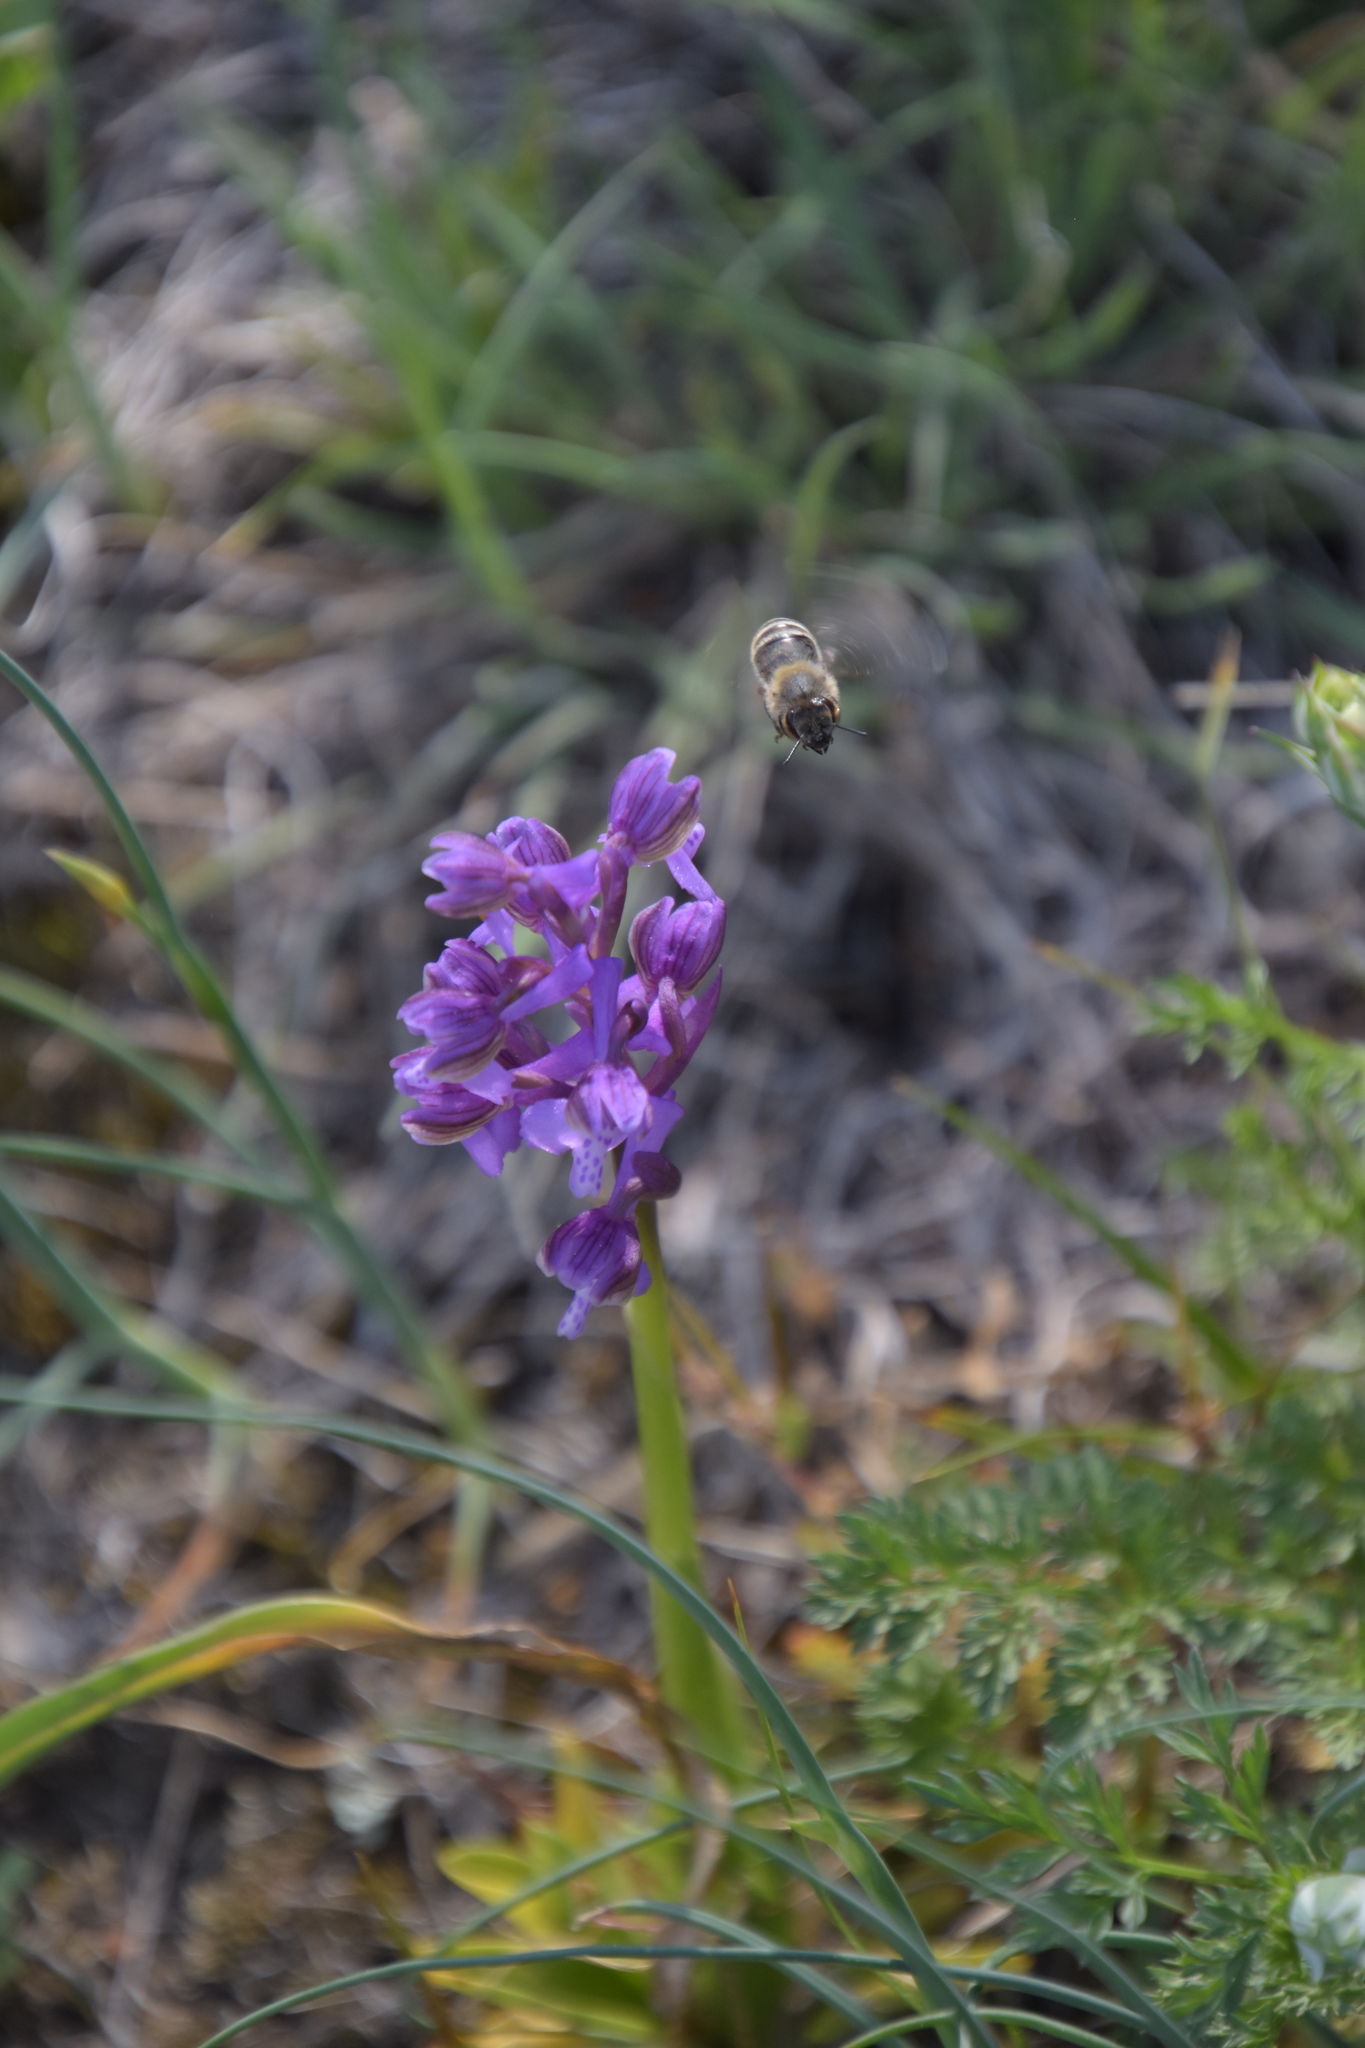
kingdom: Plantae
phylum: Tracheophyta
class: Liliopsida
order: Asparagales
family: Orchidaceae
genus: Anacamptis
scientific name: Anacamptis morio
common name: Green-winged orchid
